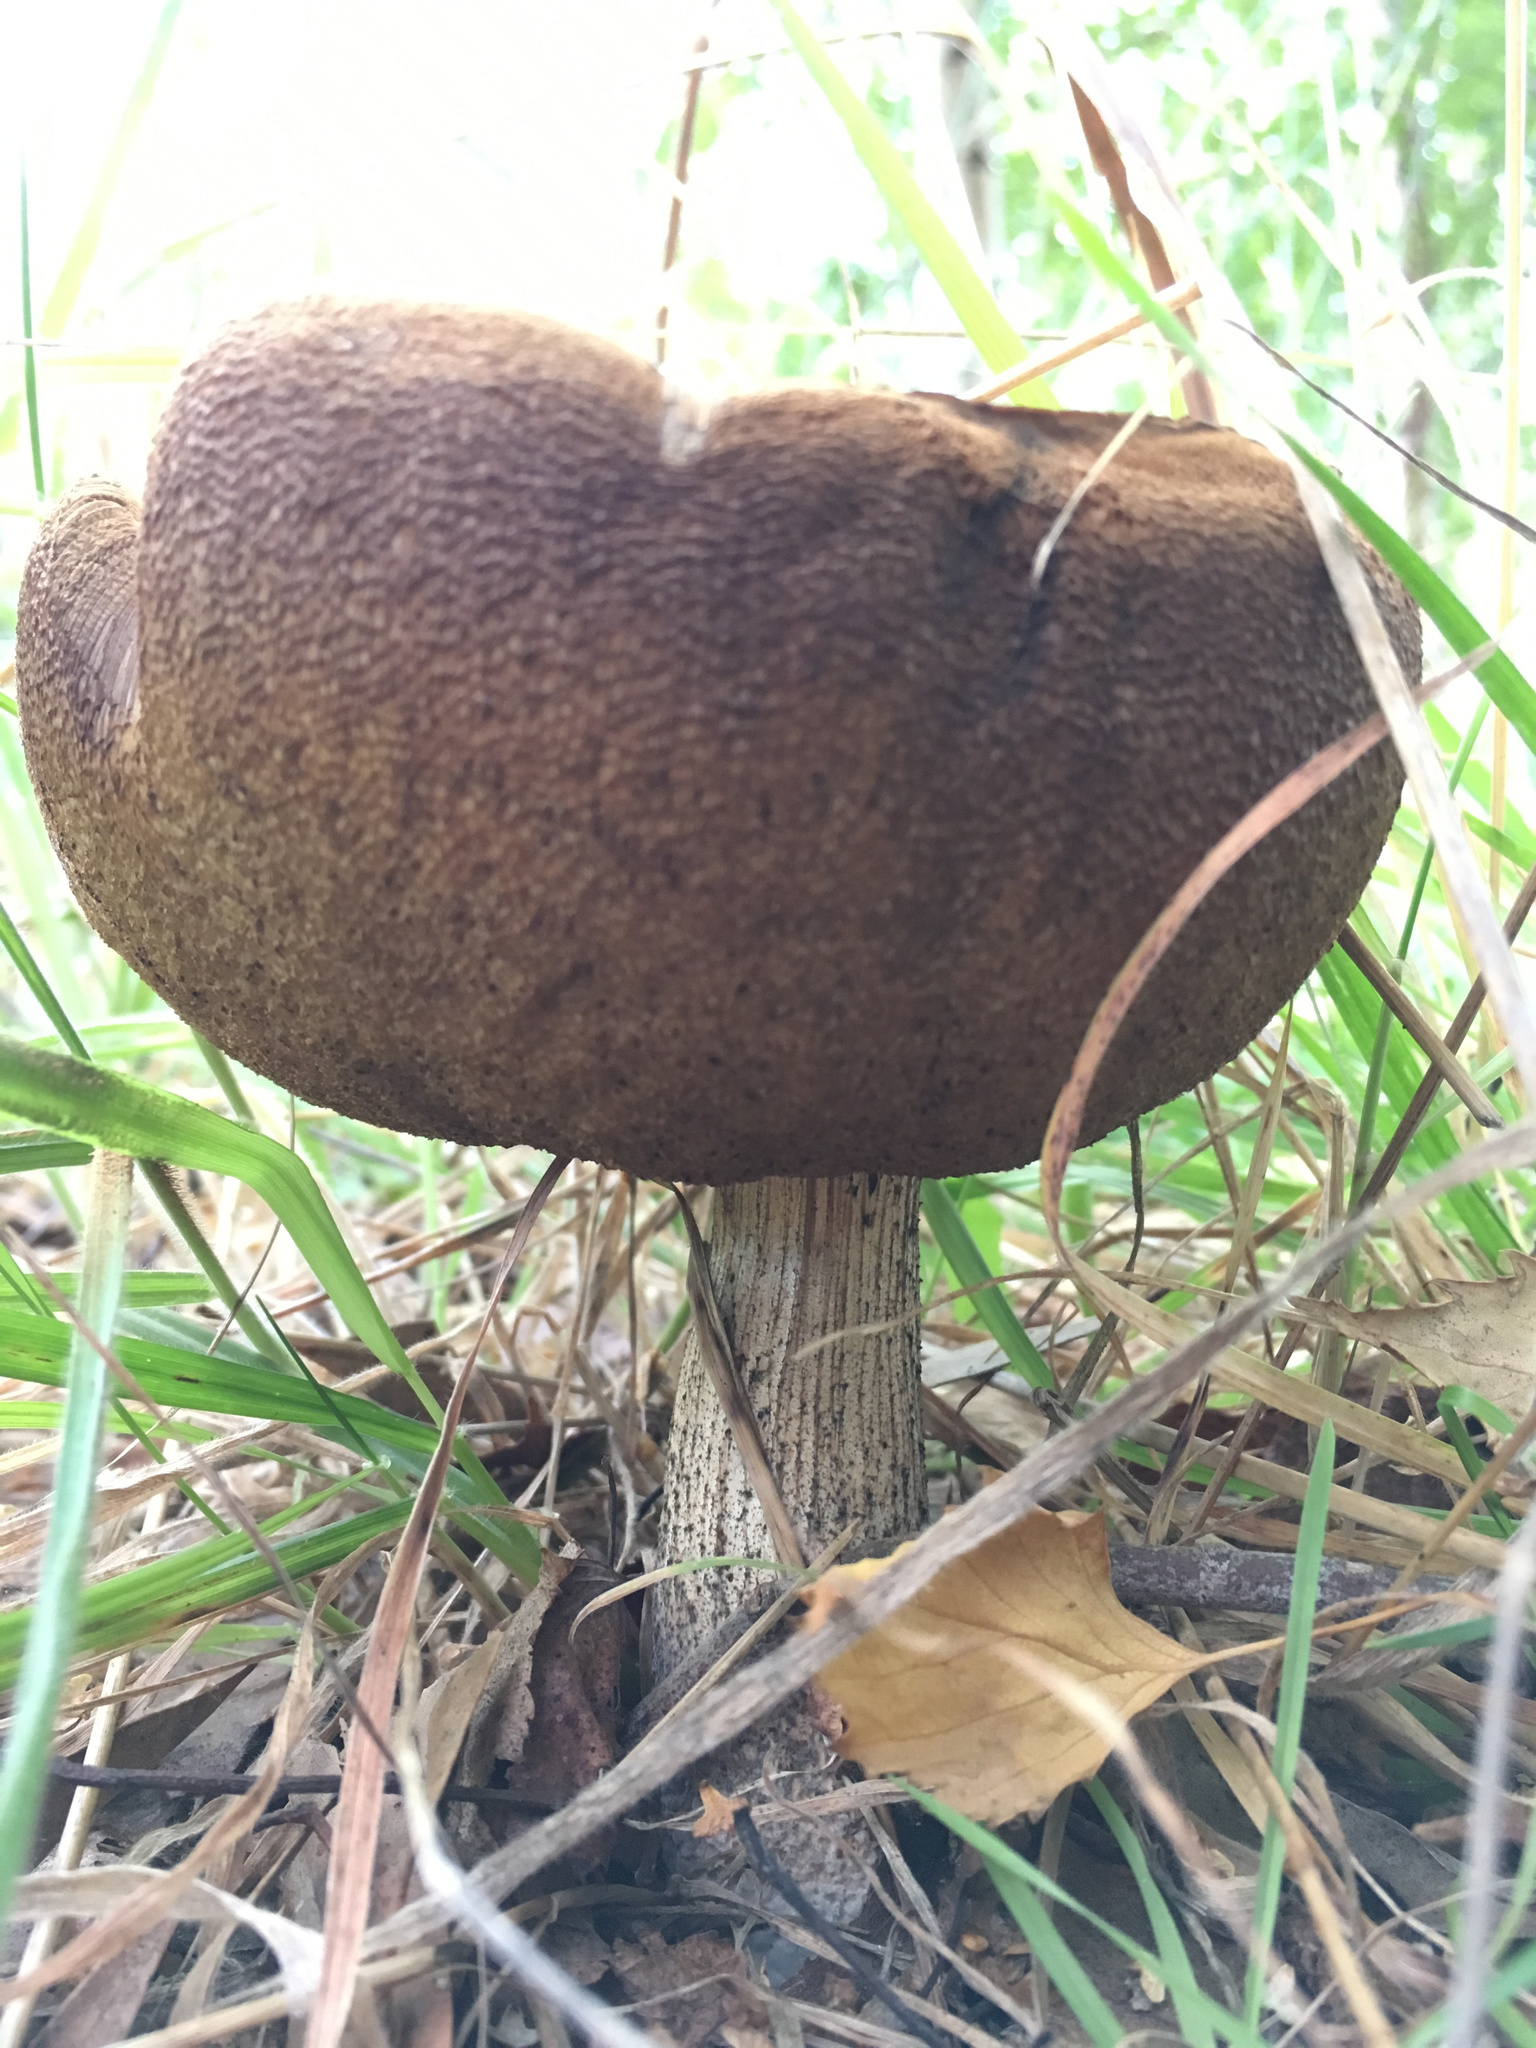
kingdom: Fungi
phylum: Basidiomycota
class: Agaricomycetes
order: Boletales
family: Boletaceae
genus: Leccinum
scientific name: Leccinum scabrum
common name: Blushing bolete
